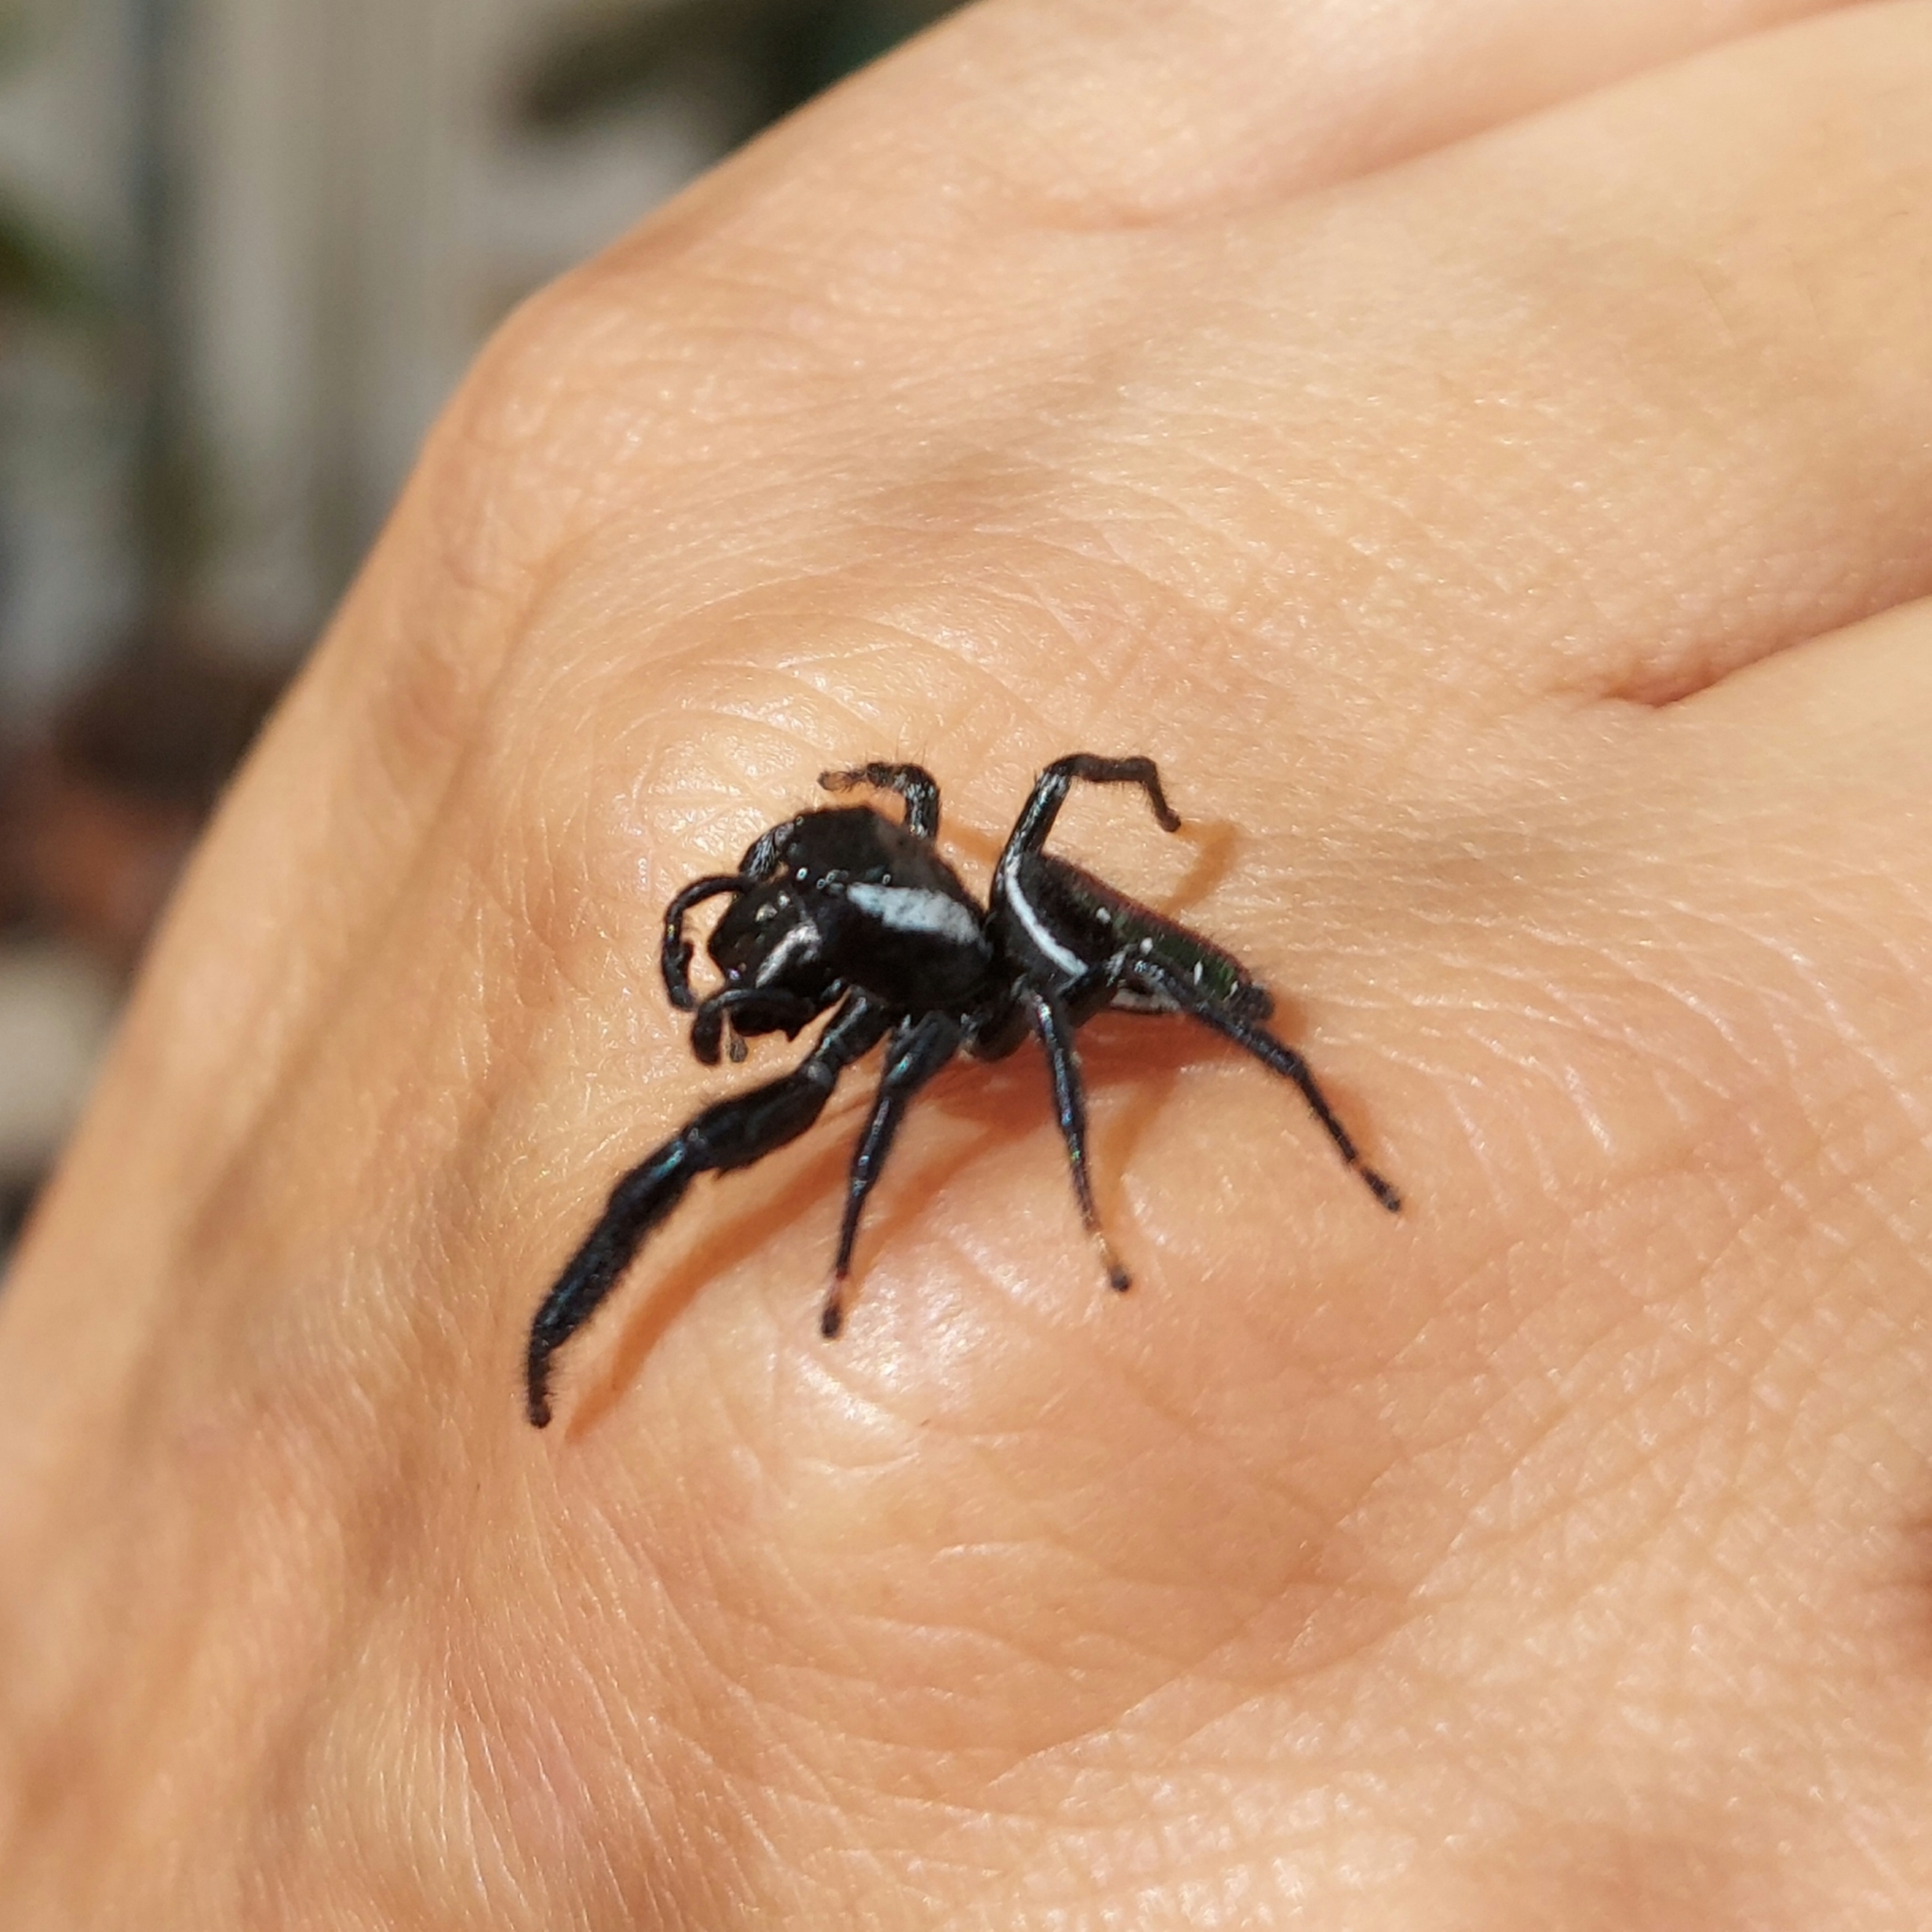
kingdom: Animalia
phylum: Arthropoda
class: Arachnida
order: Araneae
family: Salticidae
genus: Paraphidippus
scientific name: Paraphidippus aurantius
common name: Jumping spiders
